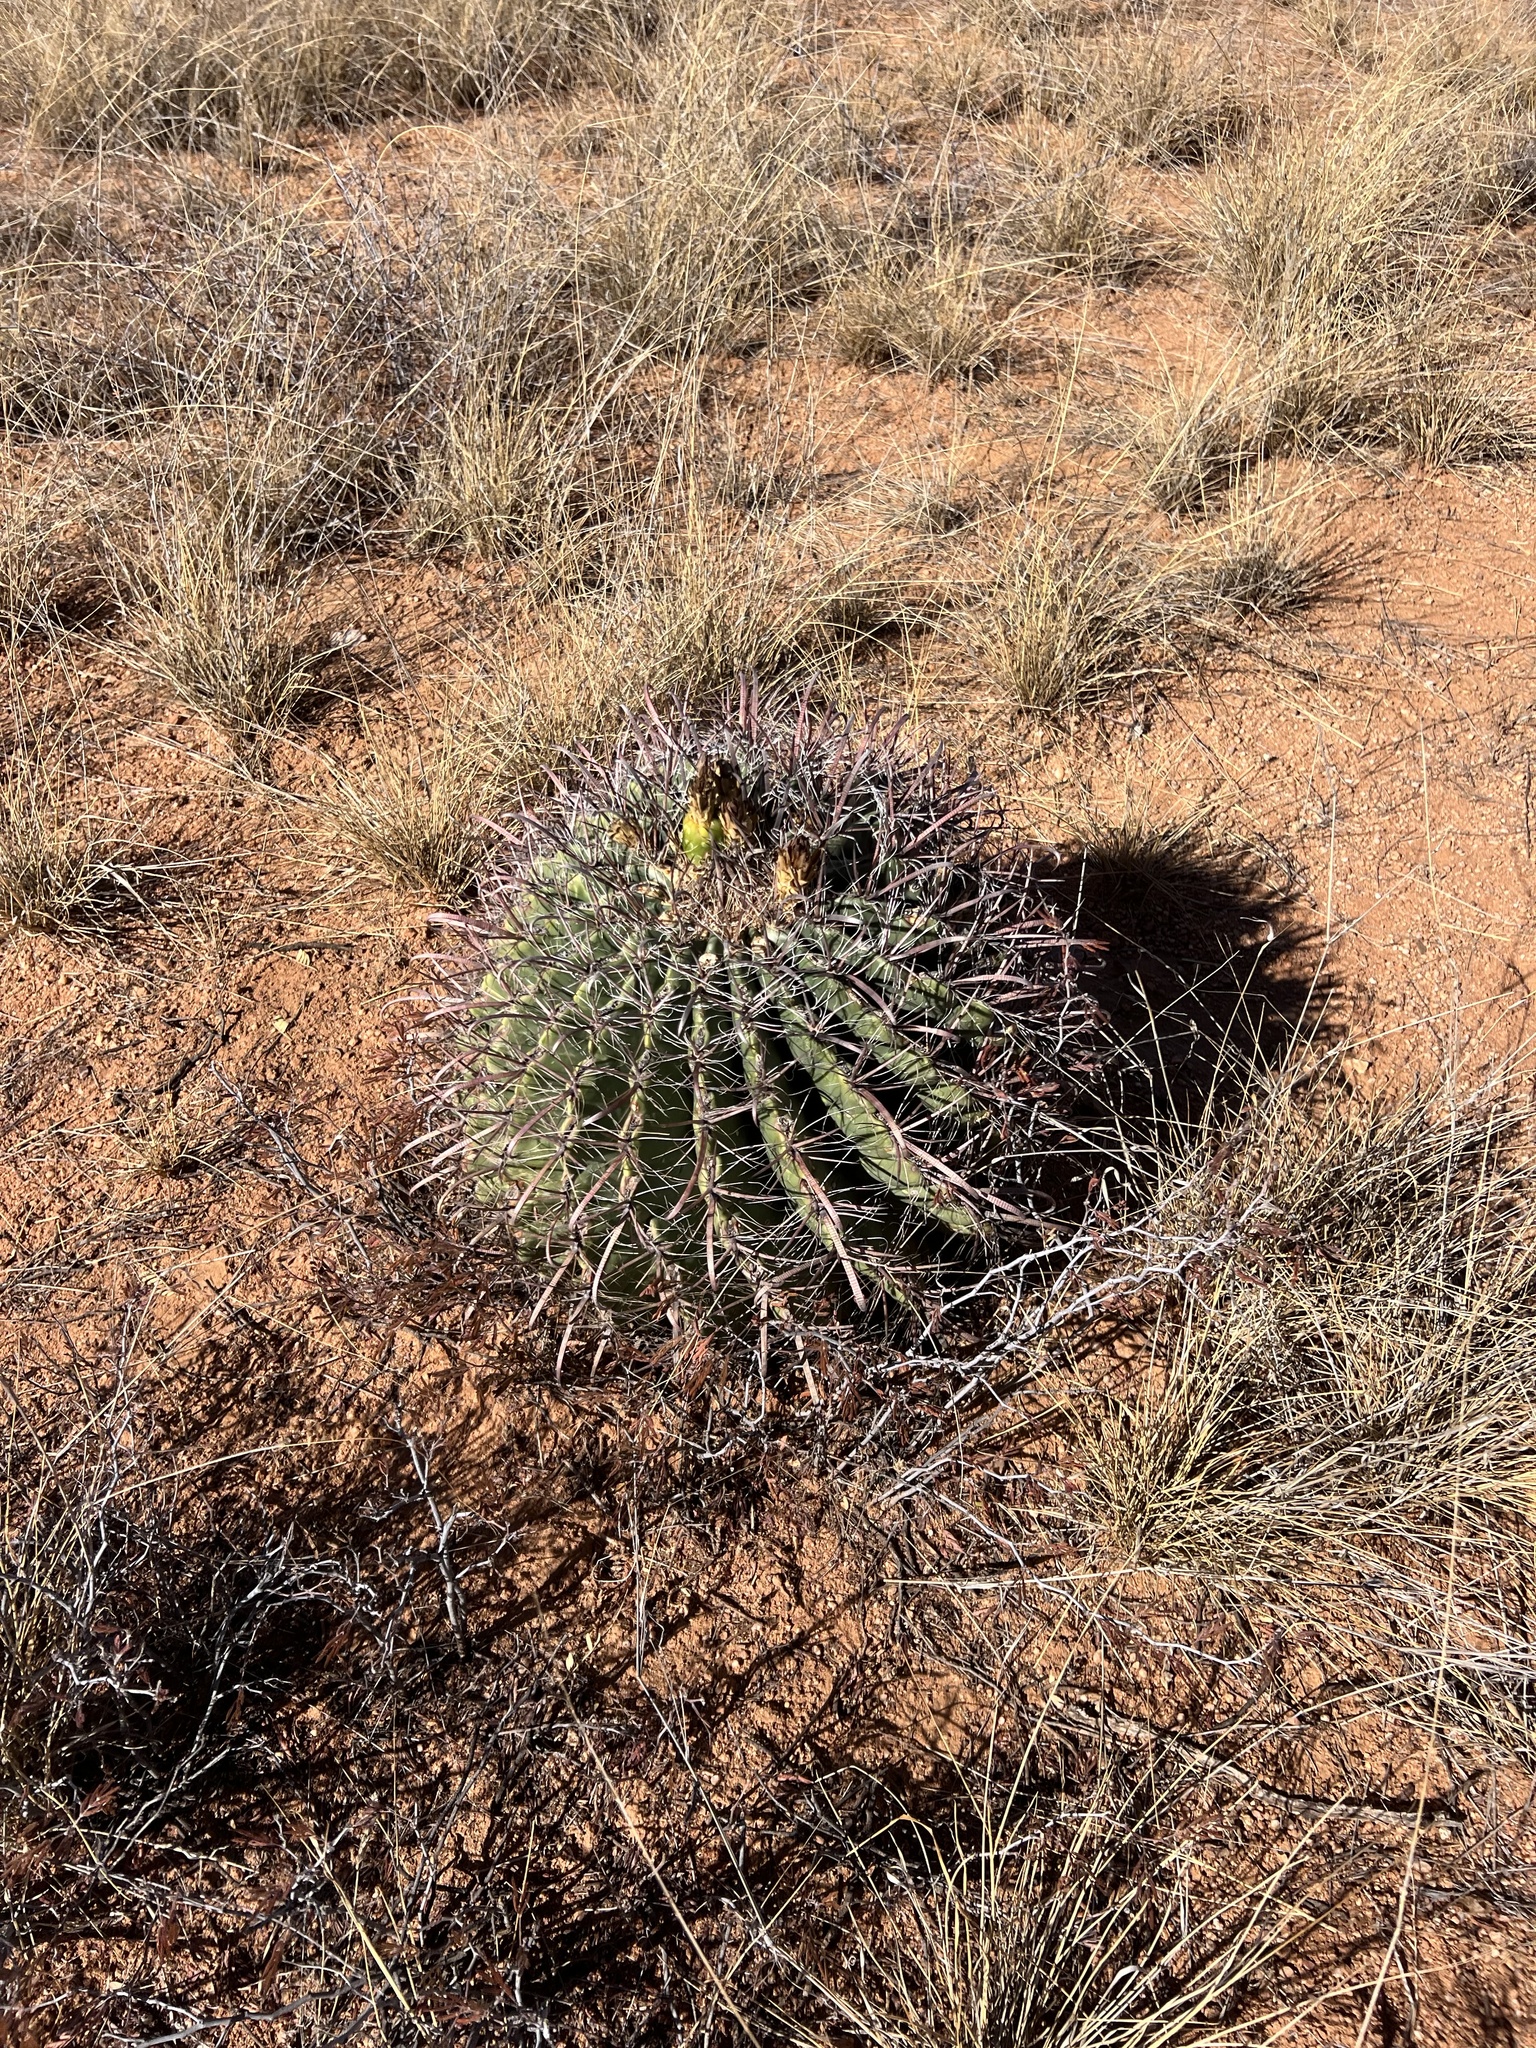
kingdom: Plantae
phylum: Tracheophyta
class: Magnoliopsida
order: Caryophyllales
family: Cactaceae
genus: Ferocactus
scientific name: Ferocactus wislizeni
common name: Candy barrel cactus
